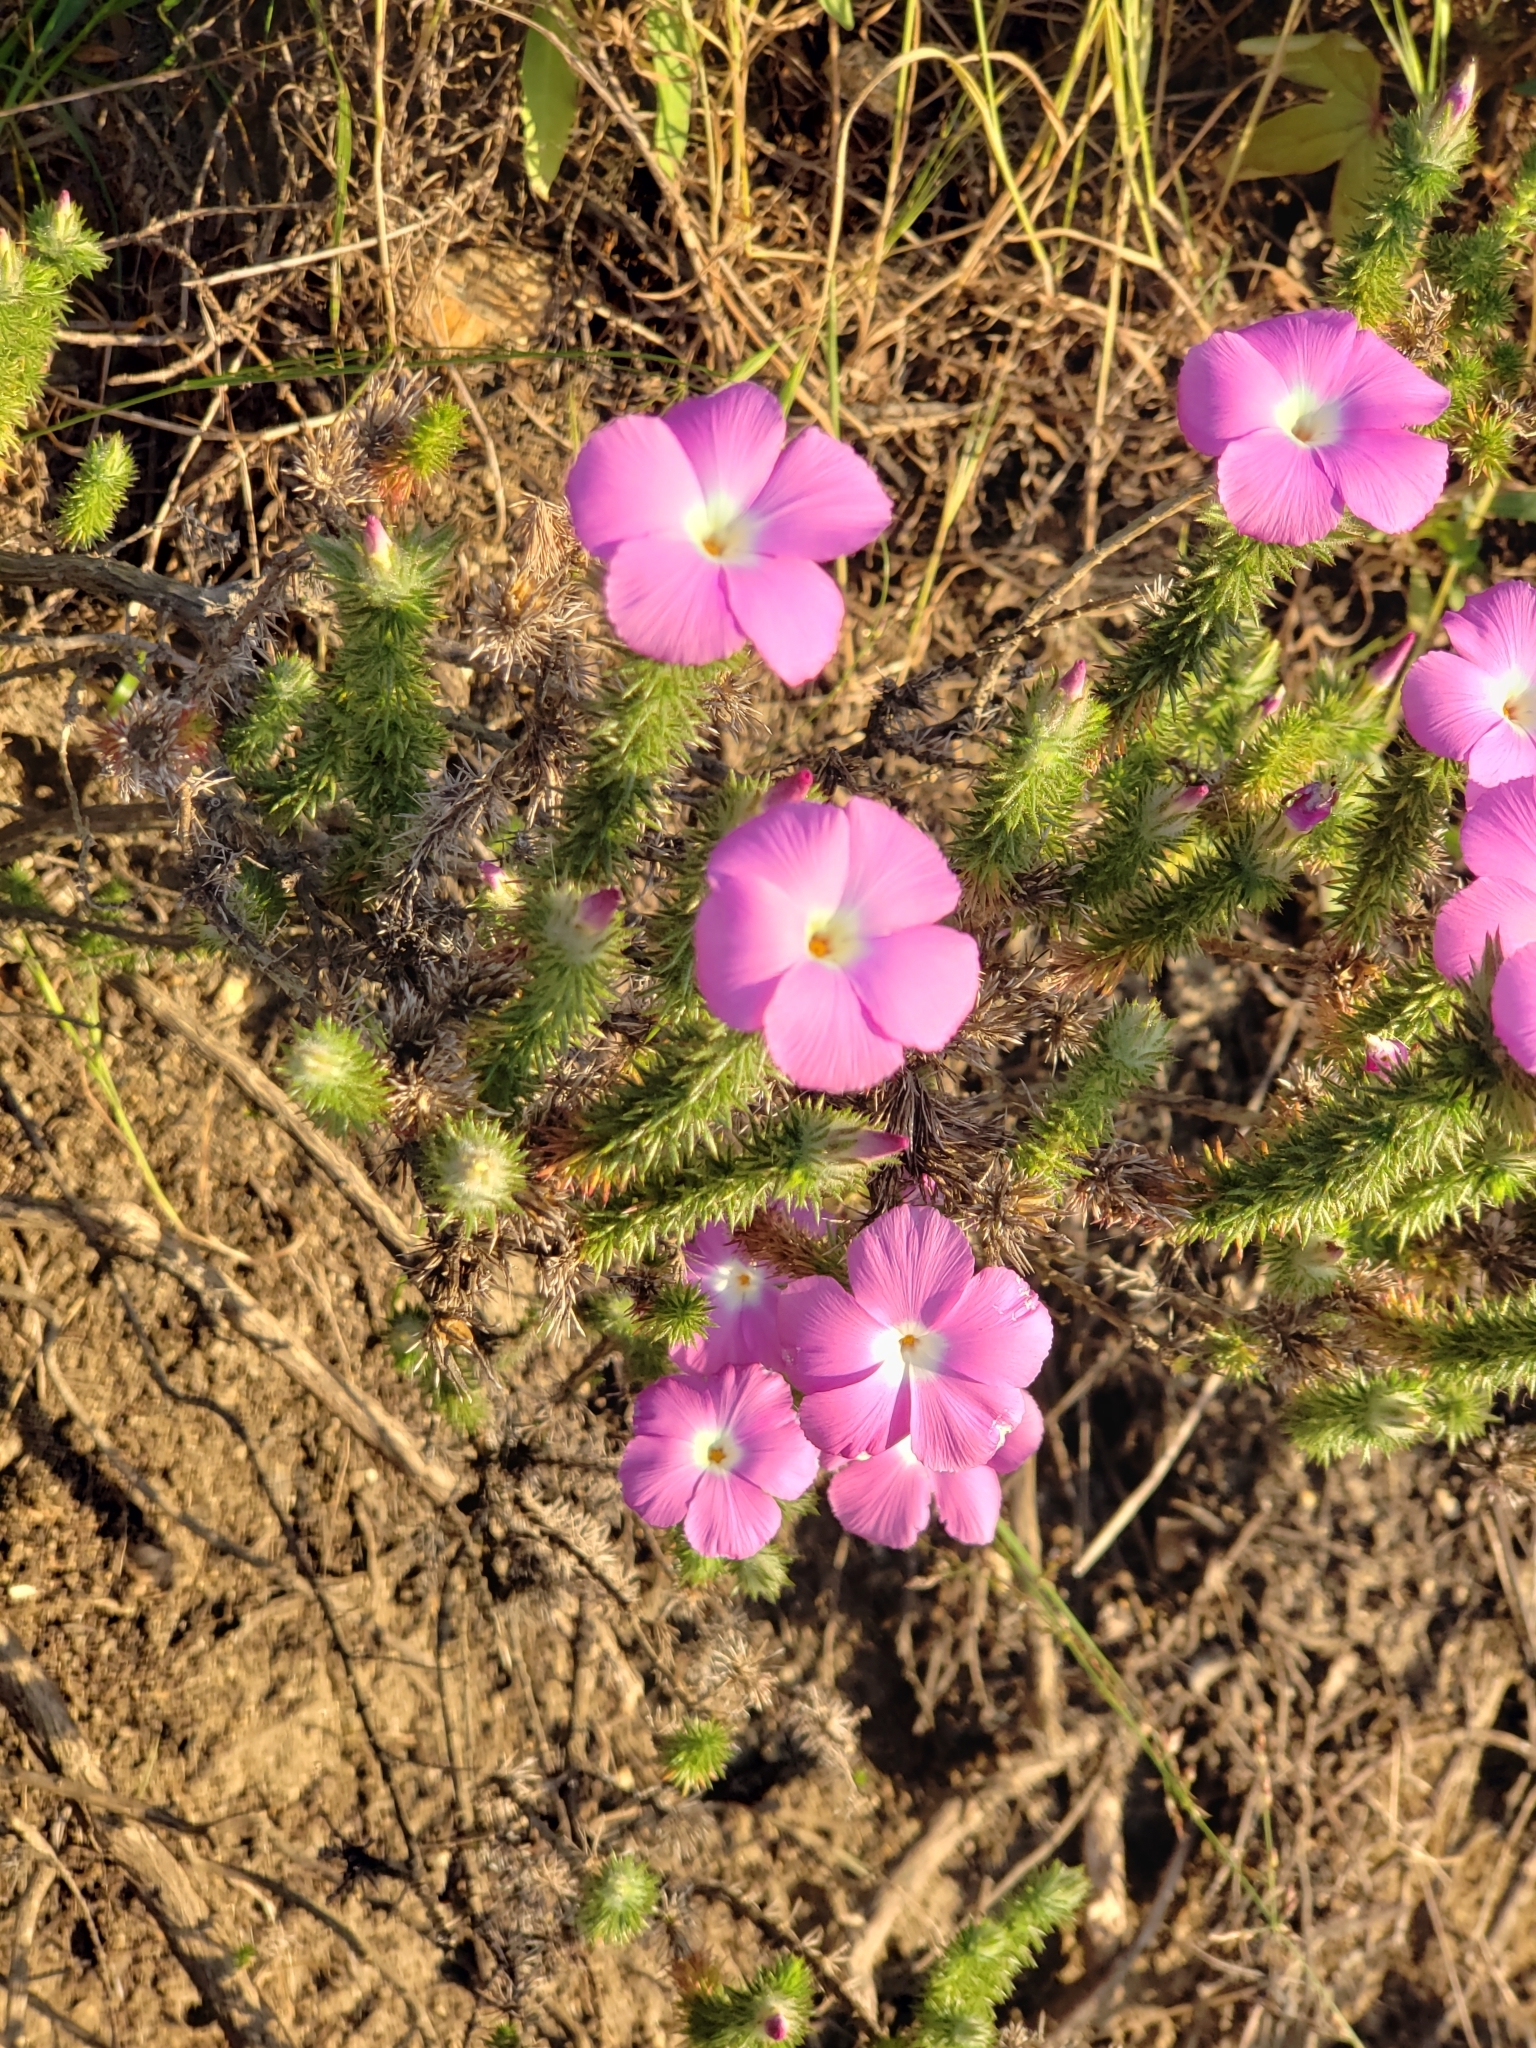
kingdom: Plantae
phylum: Tracheophyta
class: Magnoliopsida
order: Ericales
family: Polemoniaceae
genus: Linanthus
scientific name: Linanthus californicus
